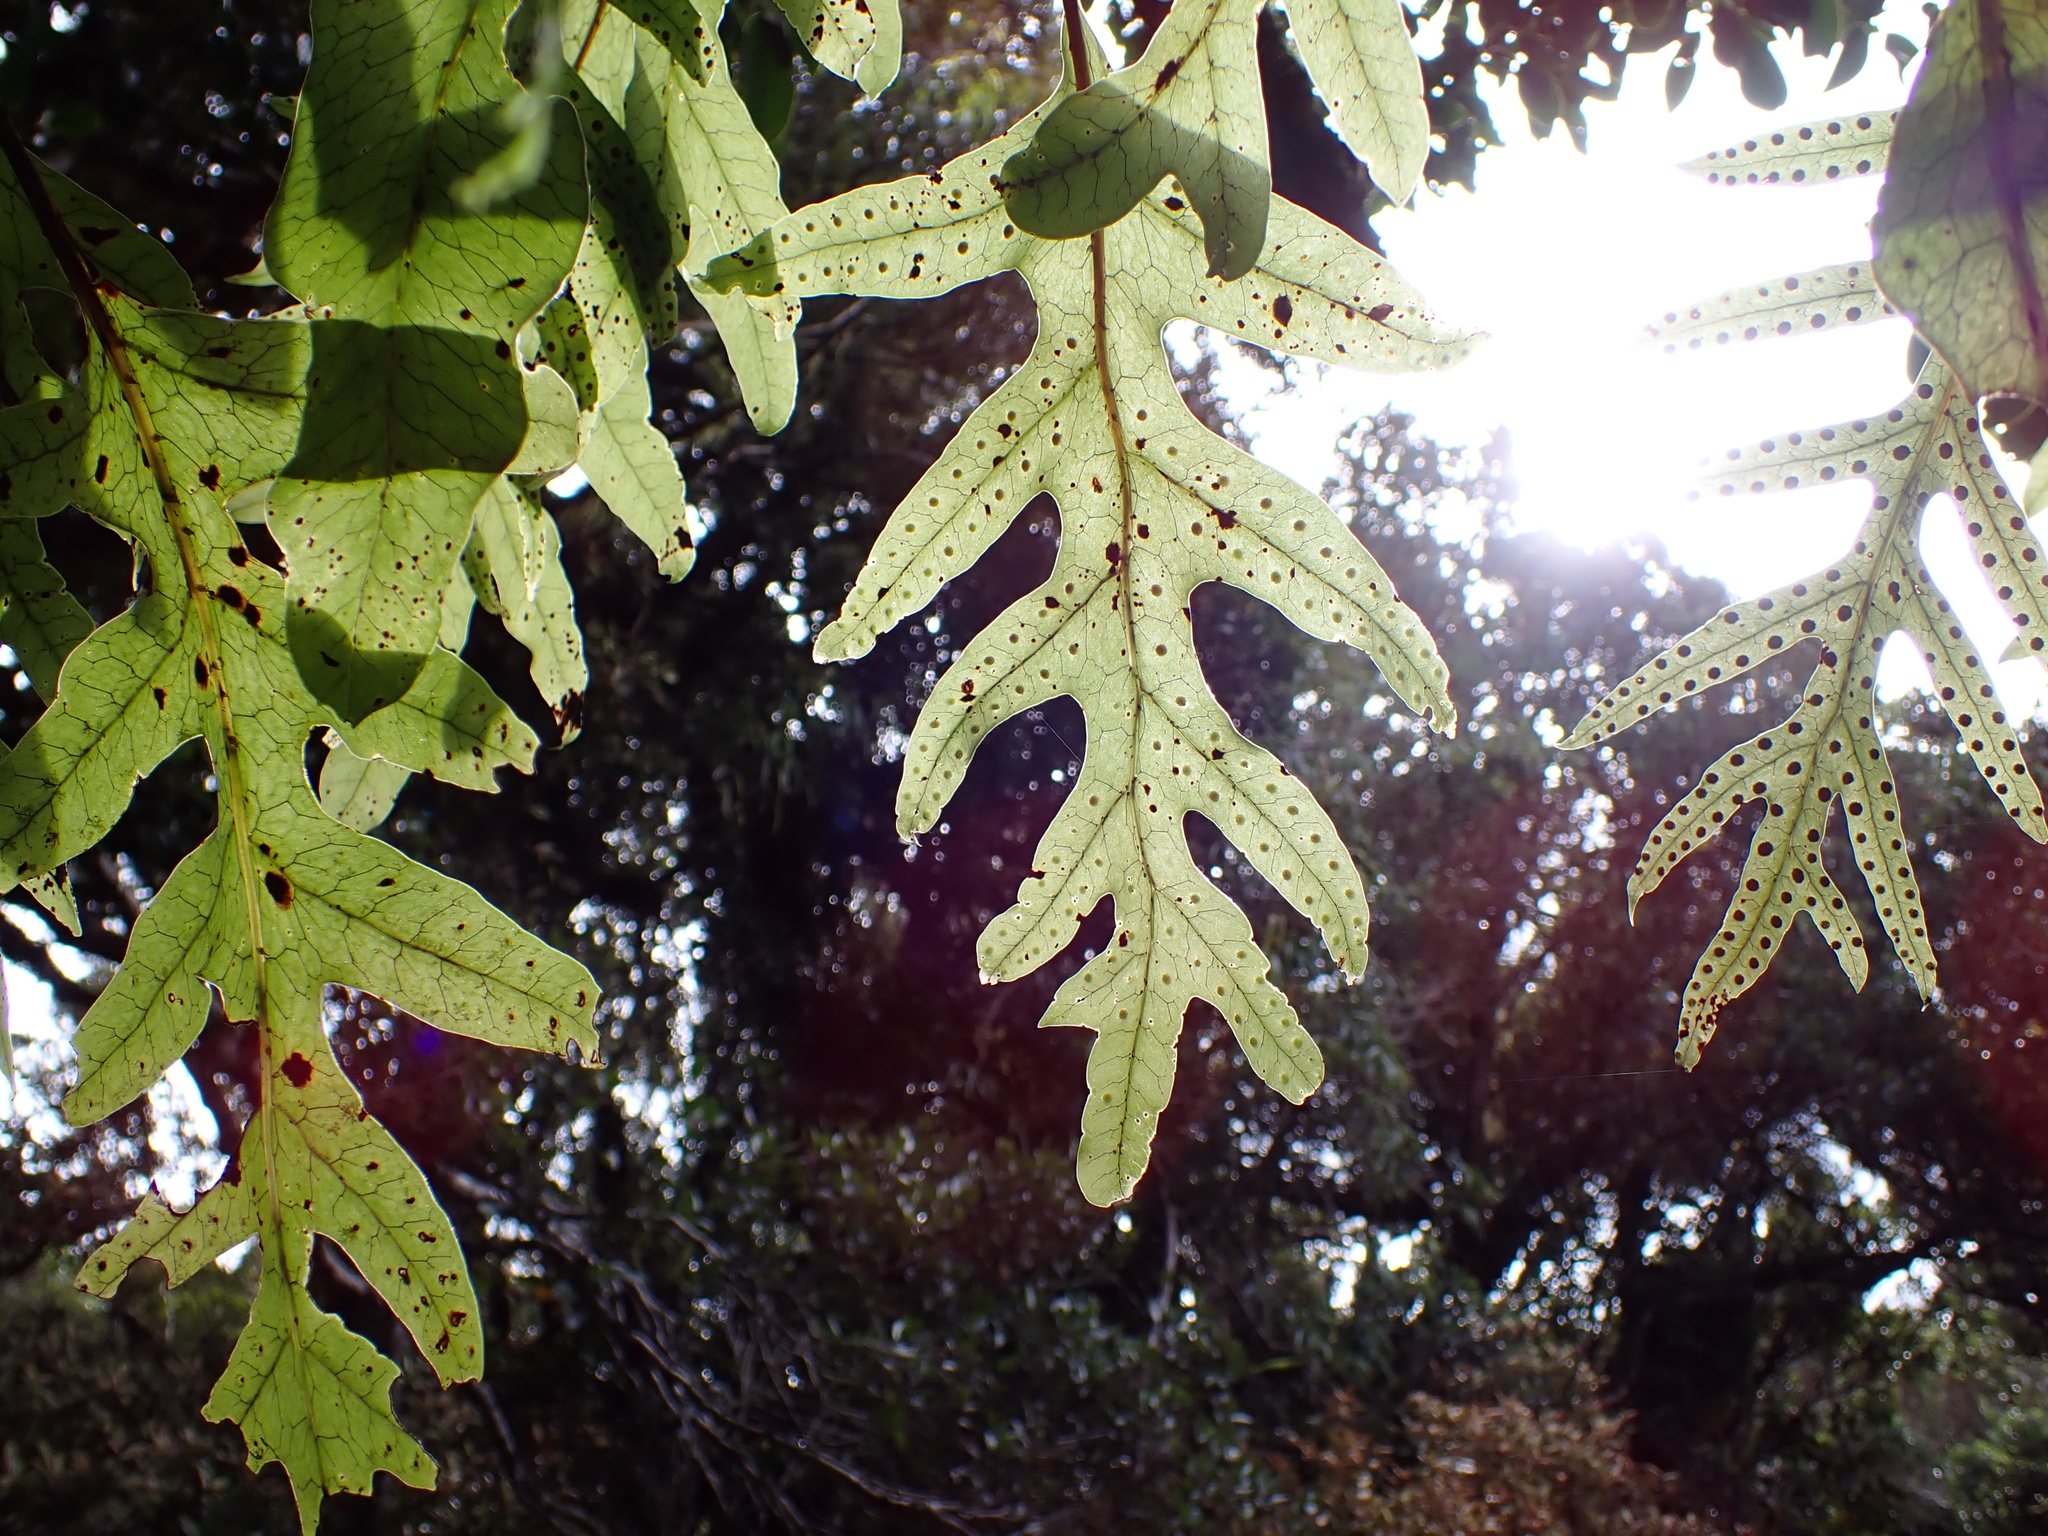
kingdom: Plantae
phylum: Tracheophyta
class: Polypodiopsida
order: Polypodiales
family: Polypodiaceae
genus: Lecanopteris
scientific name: Lecanopteris pustulata
